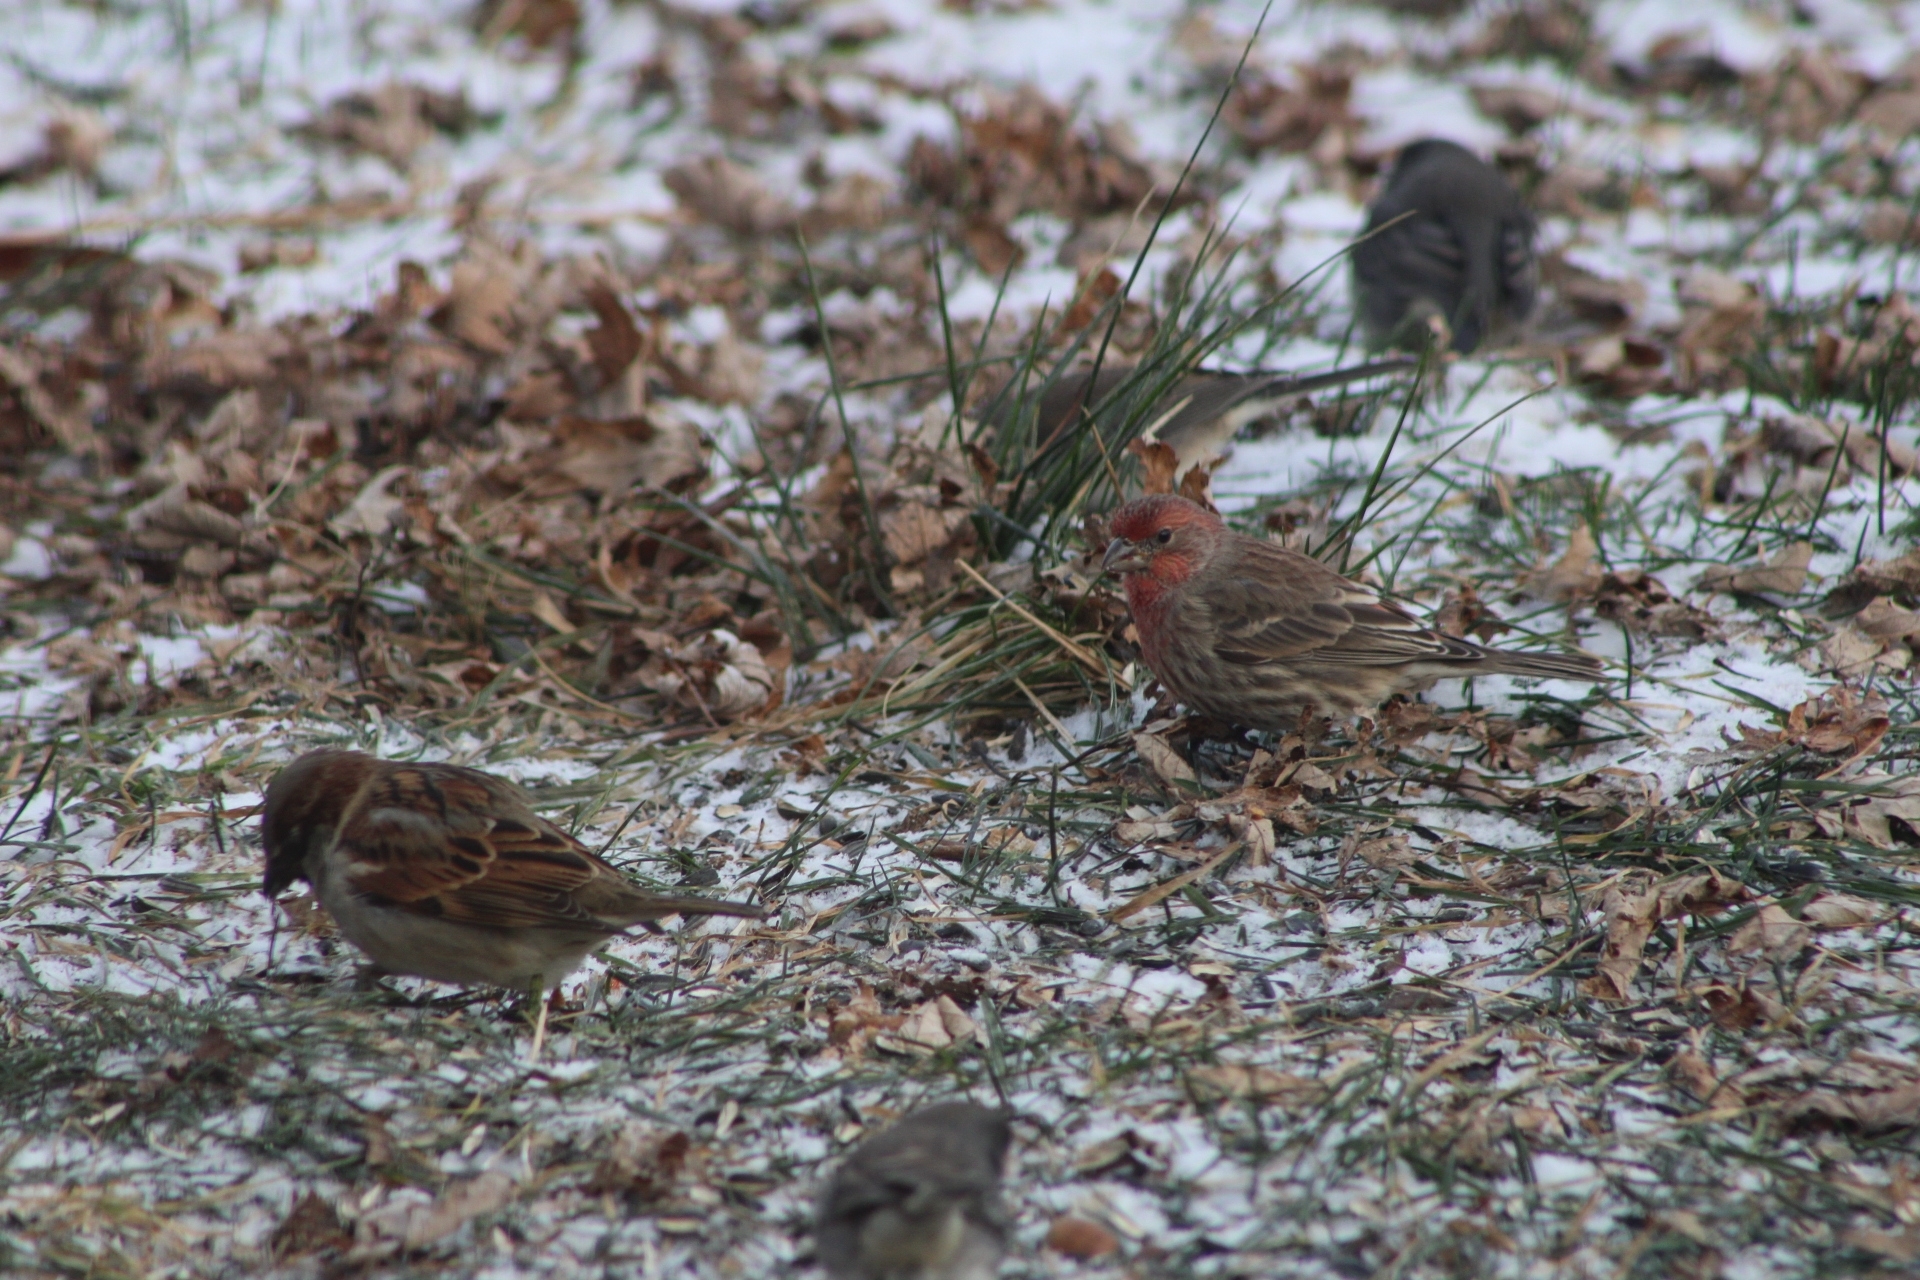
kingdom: Animalia
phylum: Chordata
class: Aves
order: Passeriformes
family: Fringillidae
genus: Haemorhous
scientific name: Haemorhous mexicanus
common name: House finch
